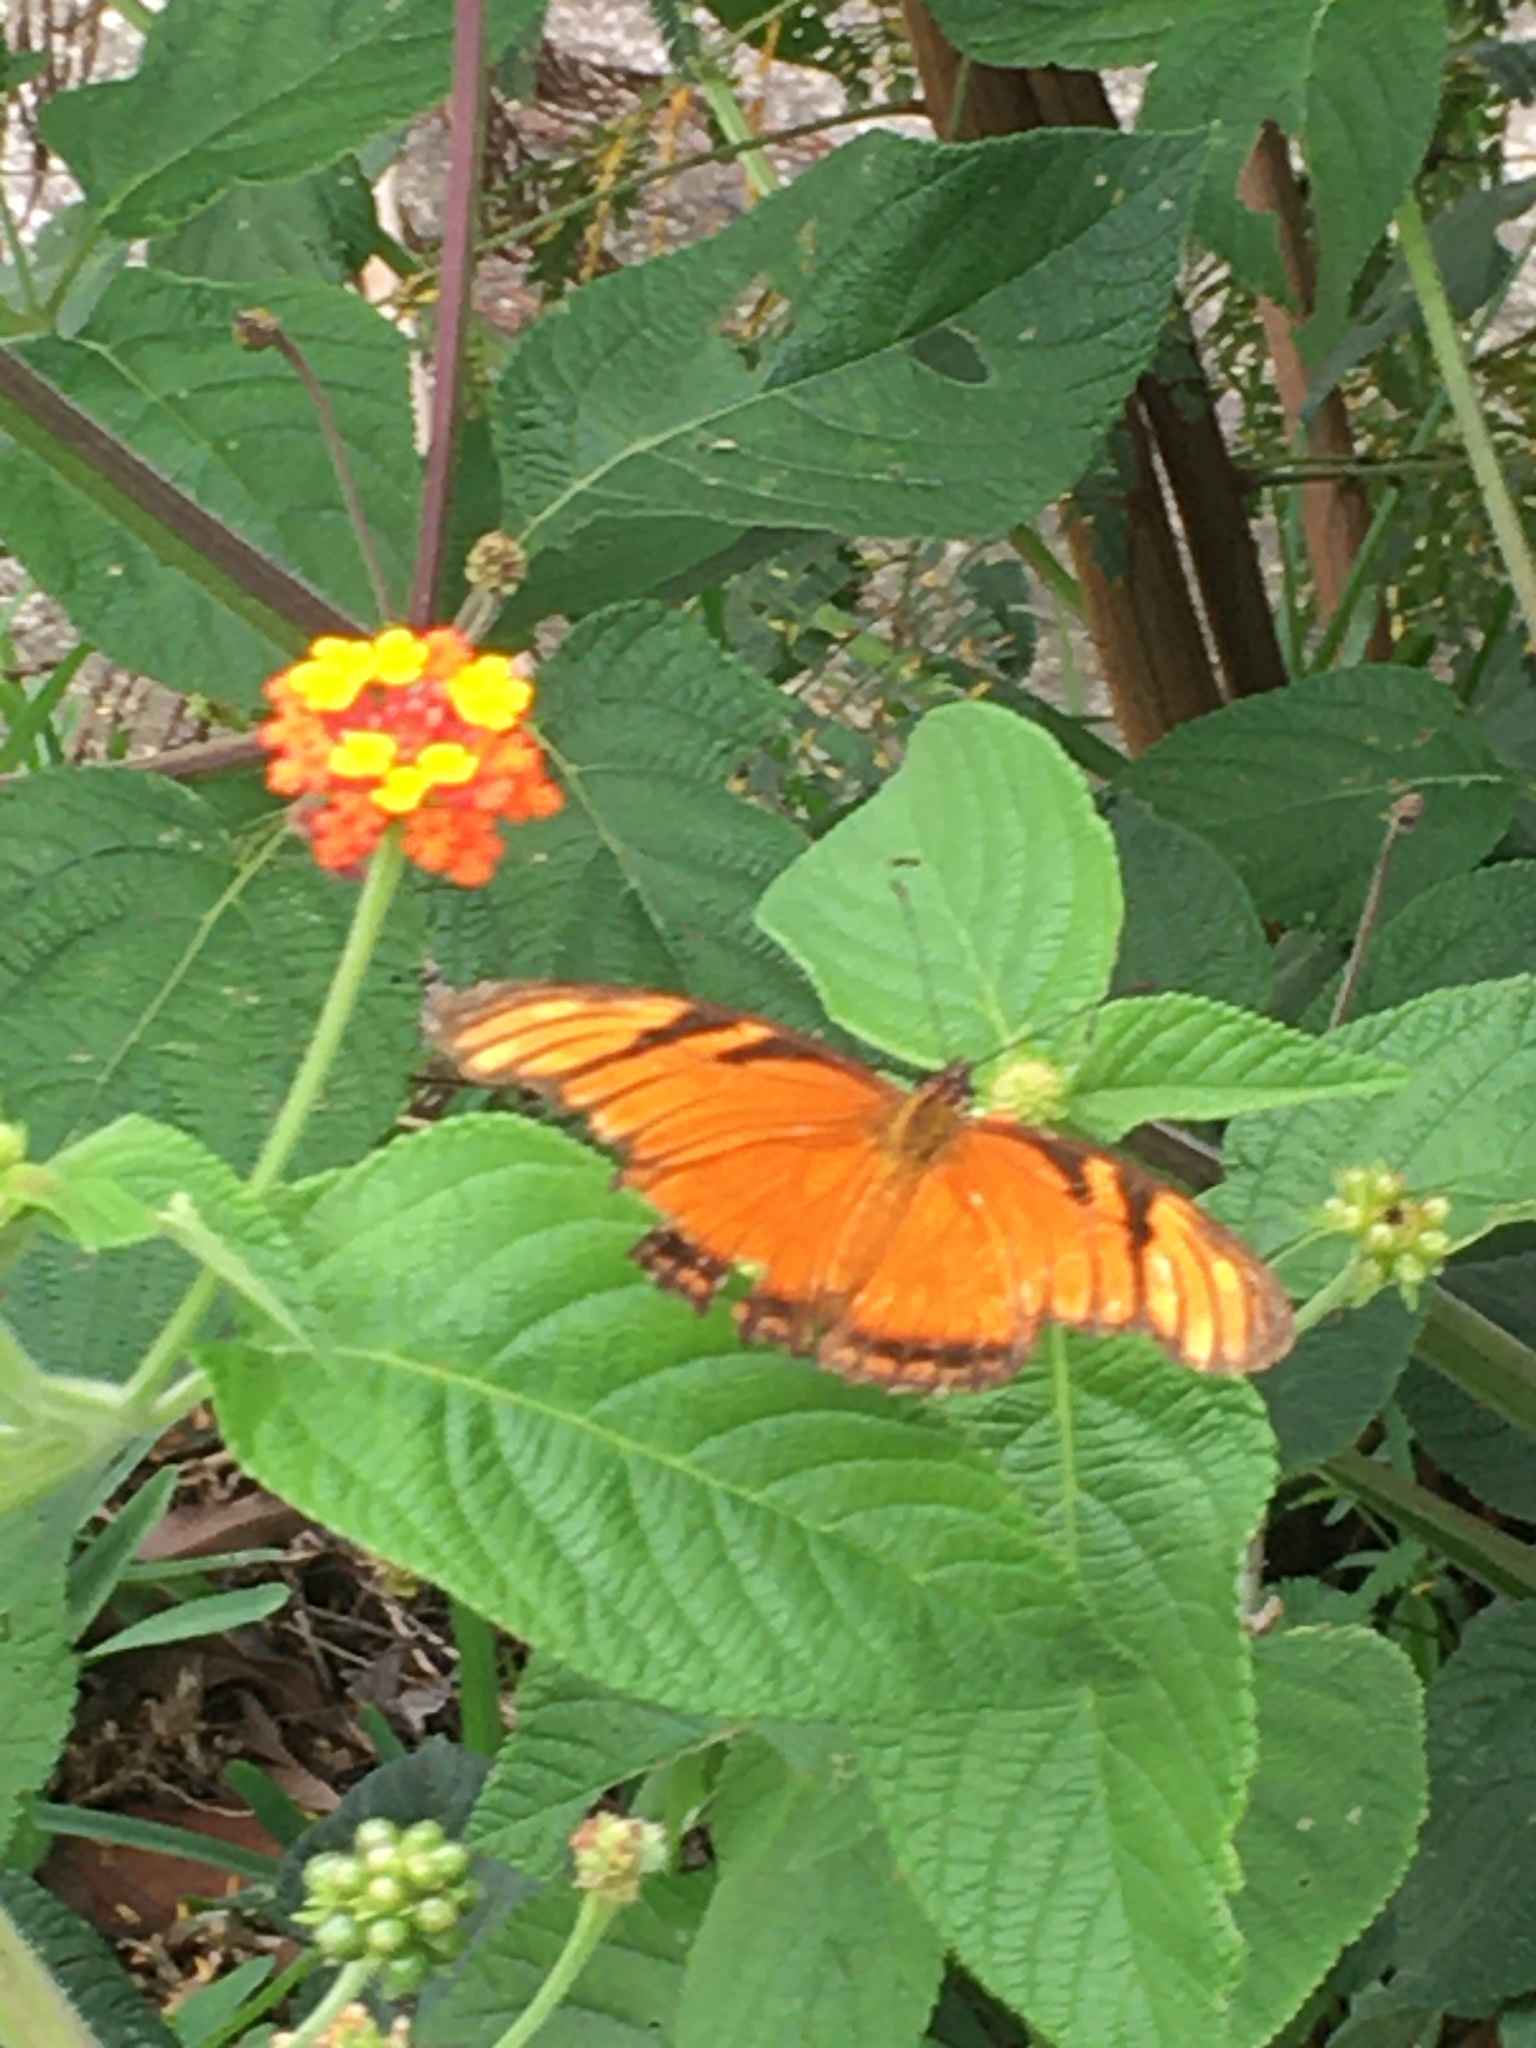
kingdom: Animalia
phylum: Arthropoda
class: Insecta
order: Lepidoptera
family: Nymphalidae
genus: Dione
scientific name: Dione juno
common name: Juno silverspot
